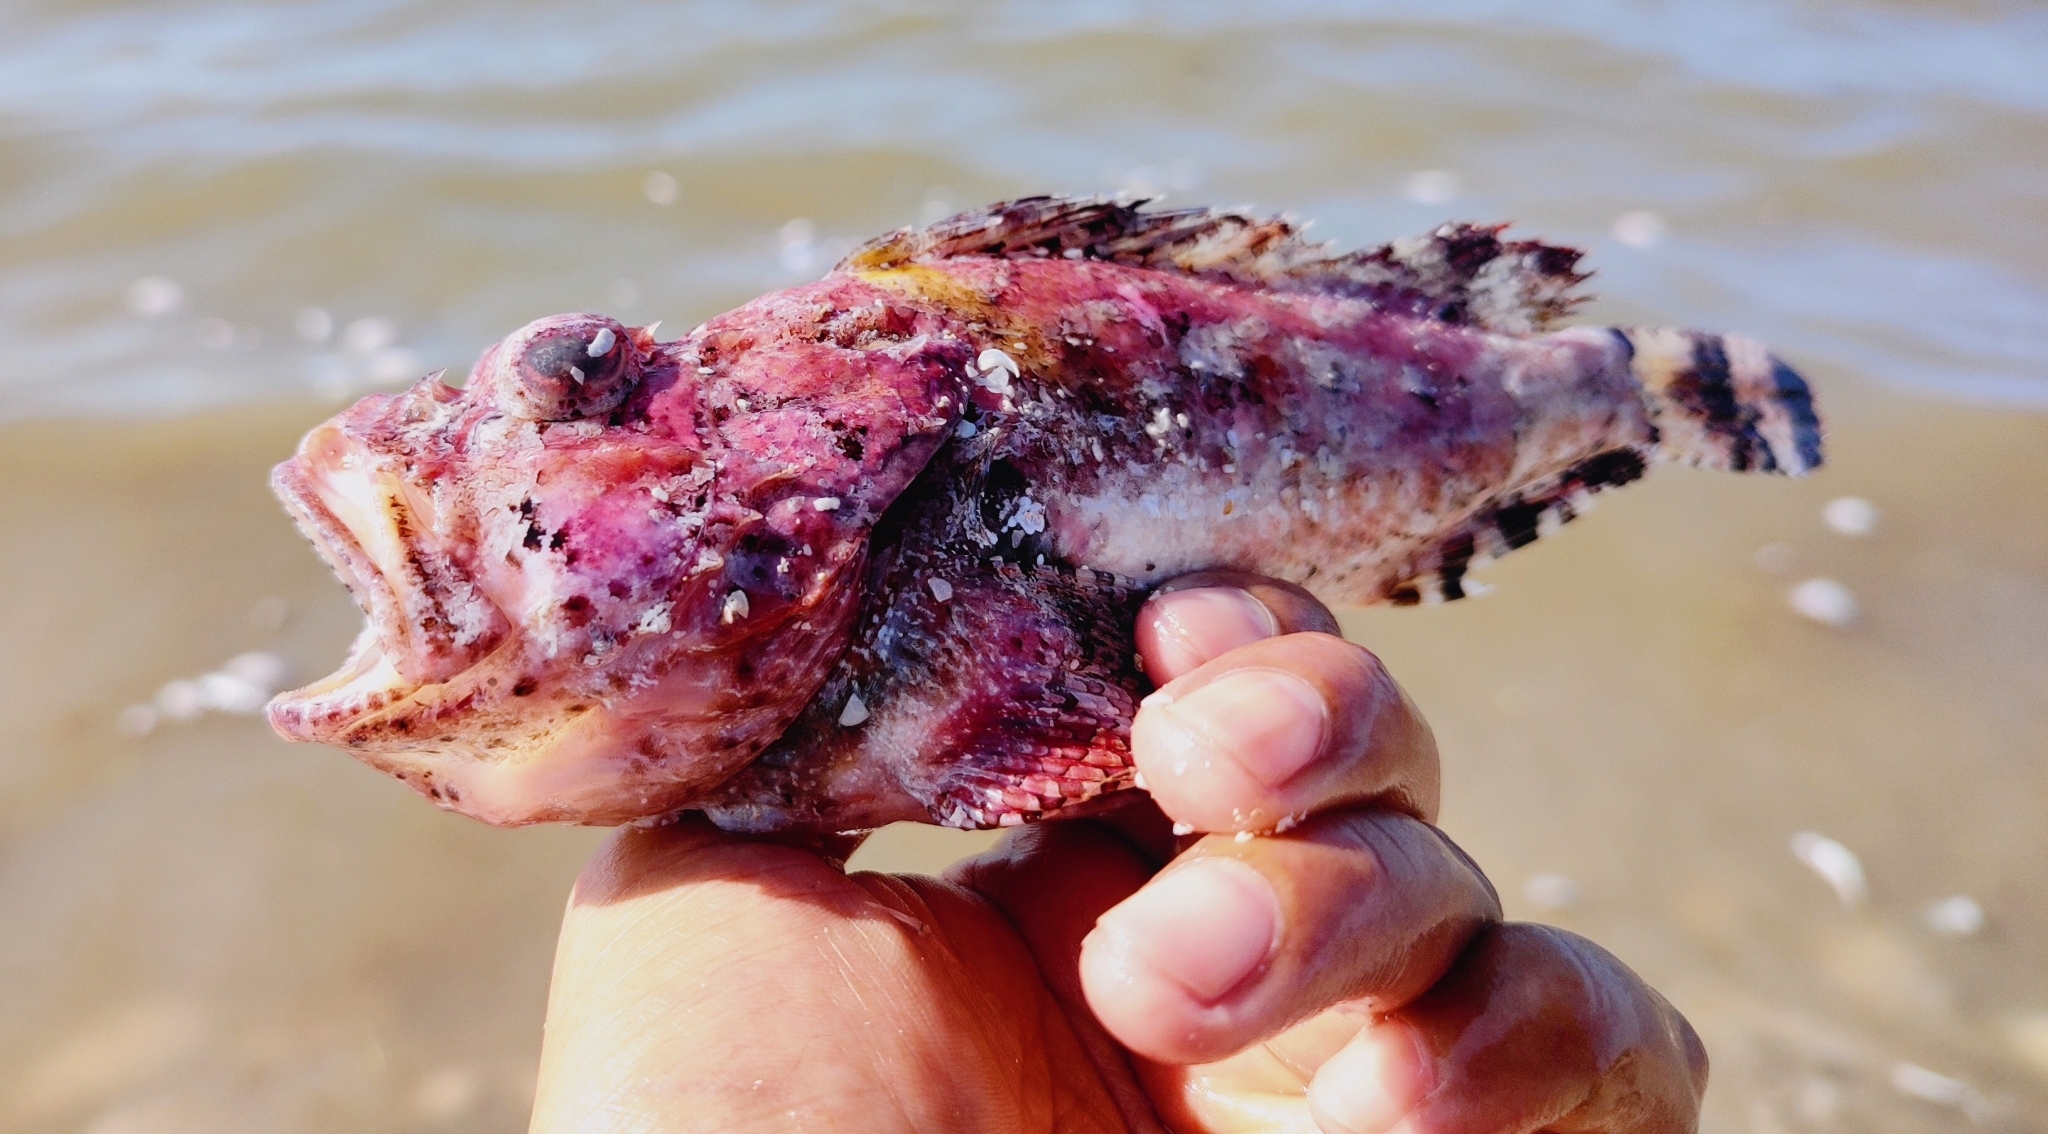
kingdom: Animalia
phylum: Chordata
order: Scorpaeniformes
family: Scorpaenidae
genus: Scorpaena
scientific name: Scorpaena plumieri
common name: Spotted scorpionfish
